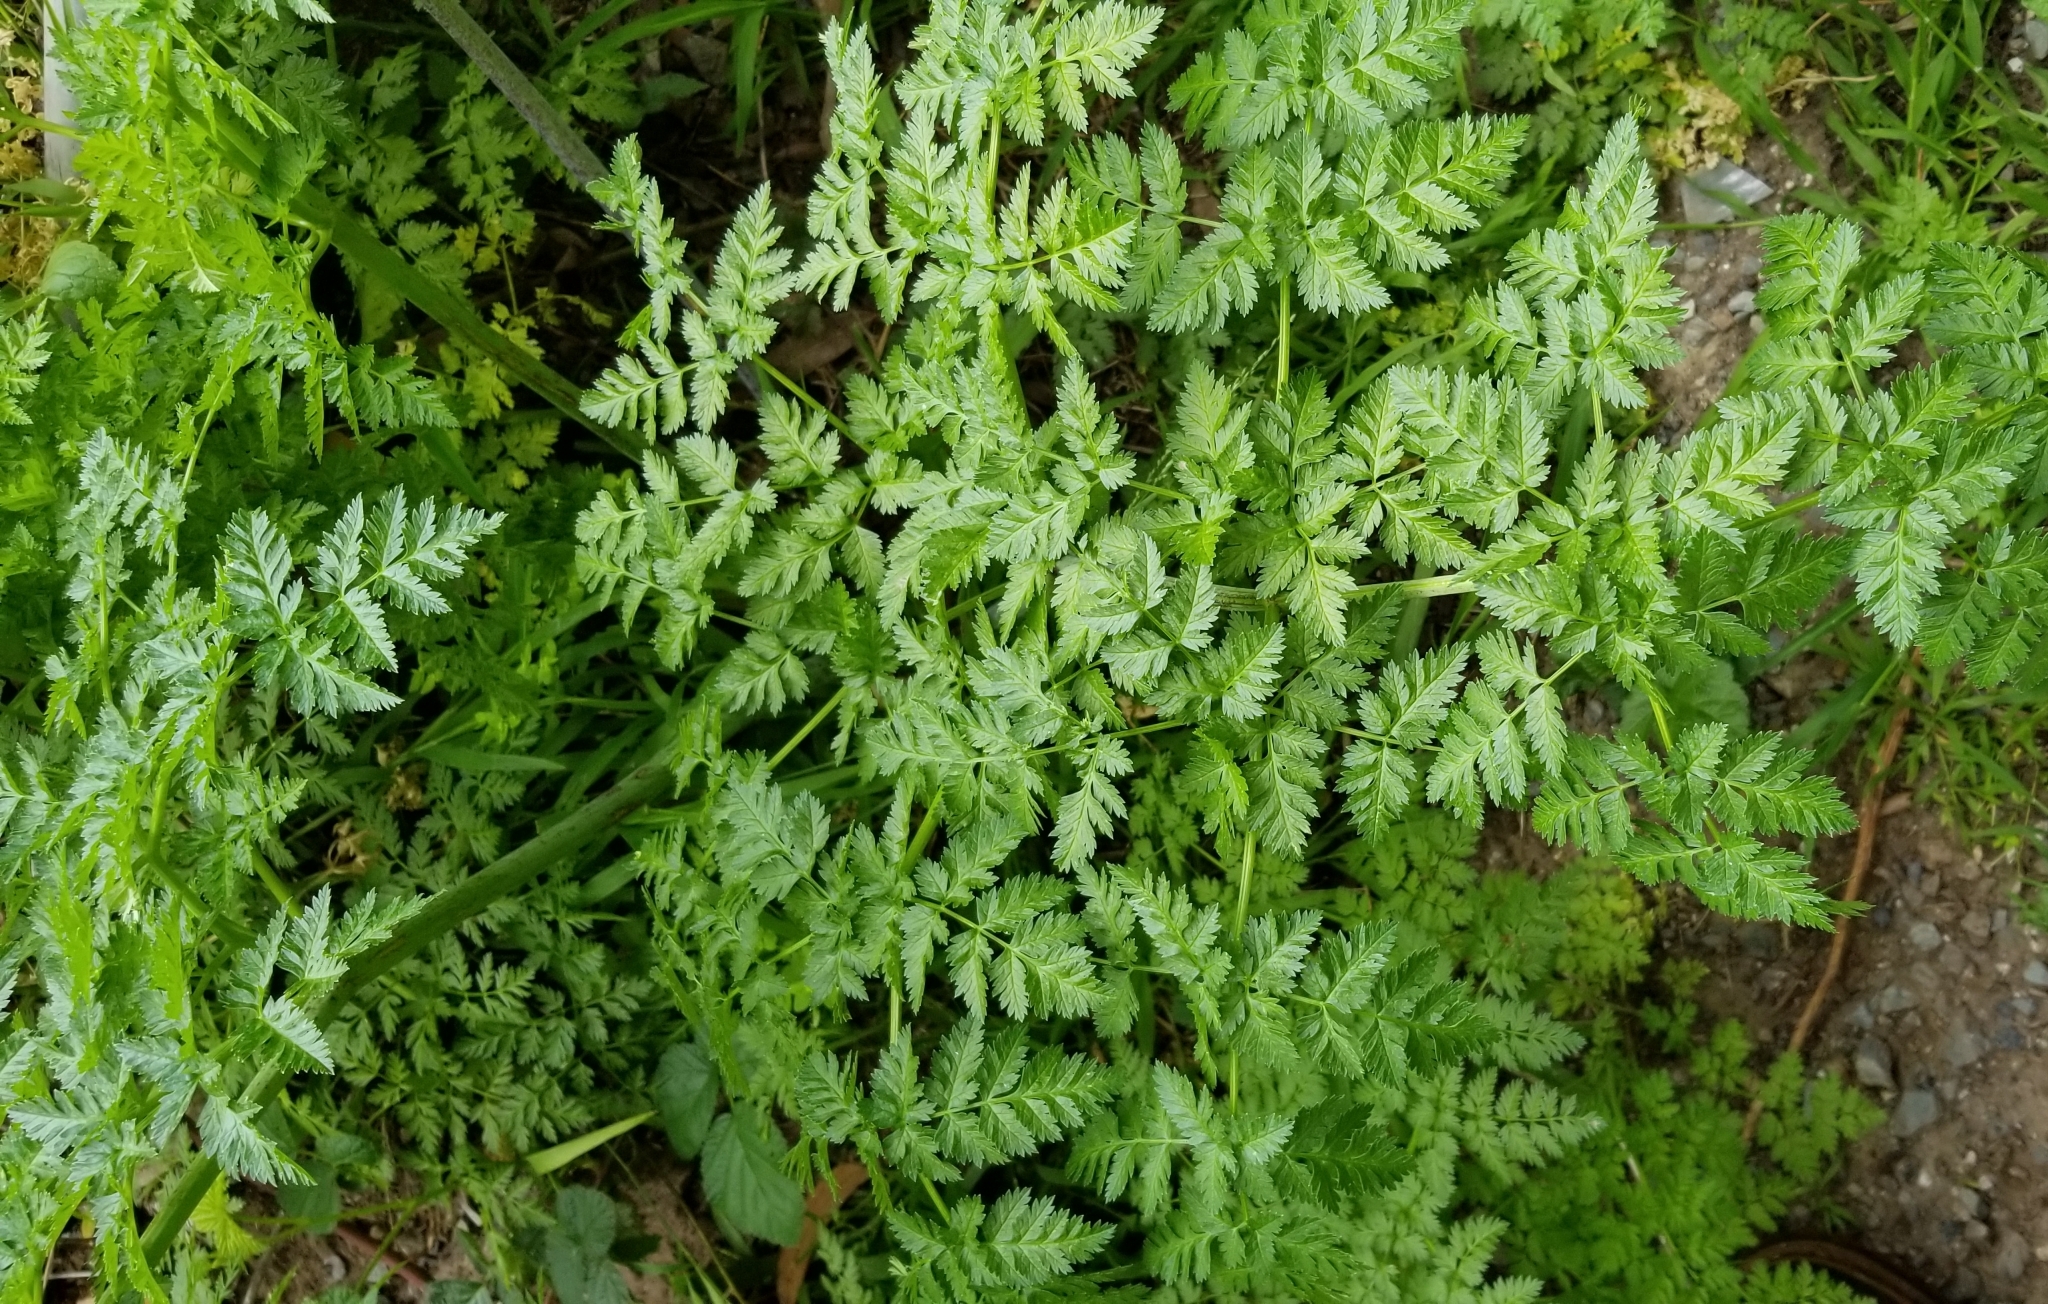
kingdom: Plantae
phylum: Tracheophyta
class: Magnoliopsida
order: Apiales
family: Apiaceae
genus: Conium
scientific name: Conium maculatum
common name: Hemlock
